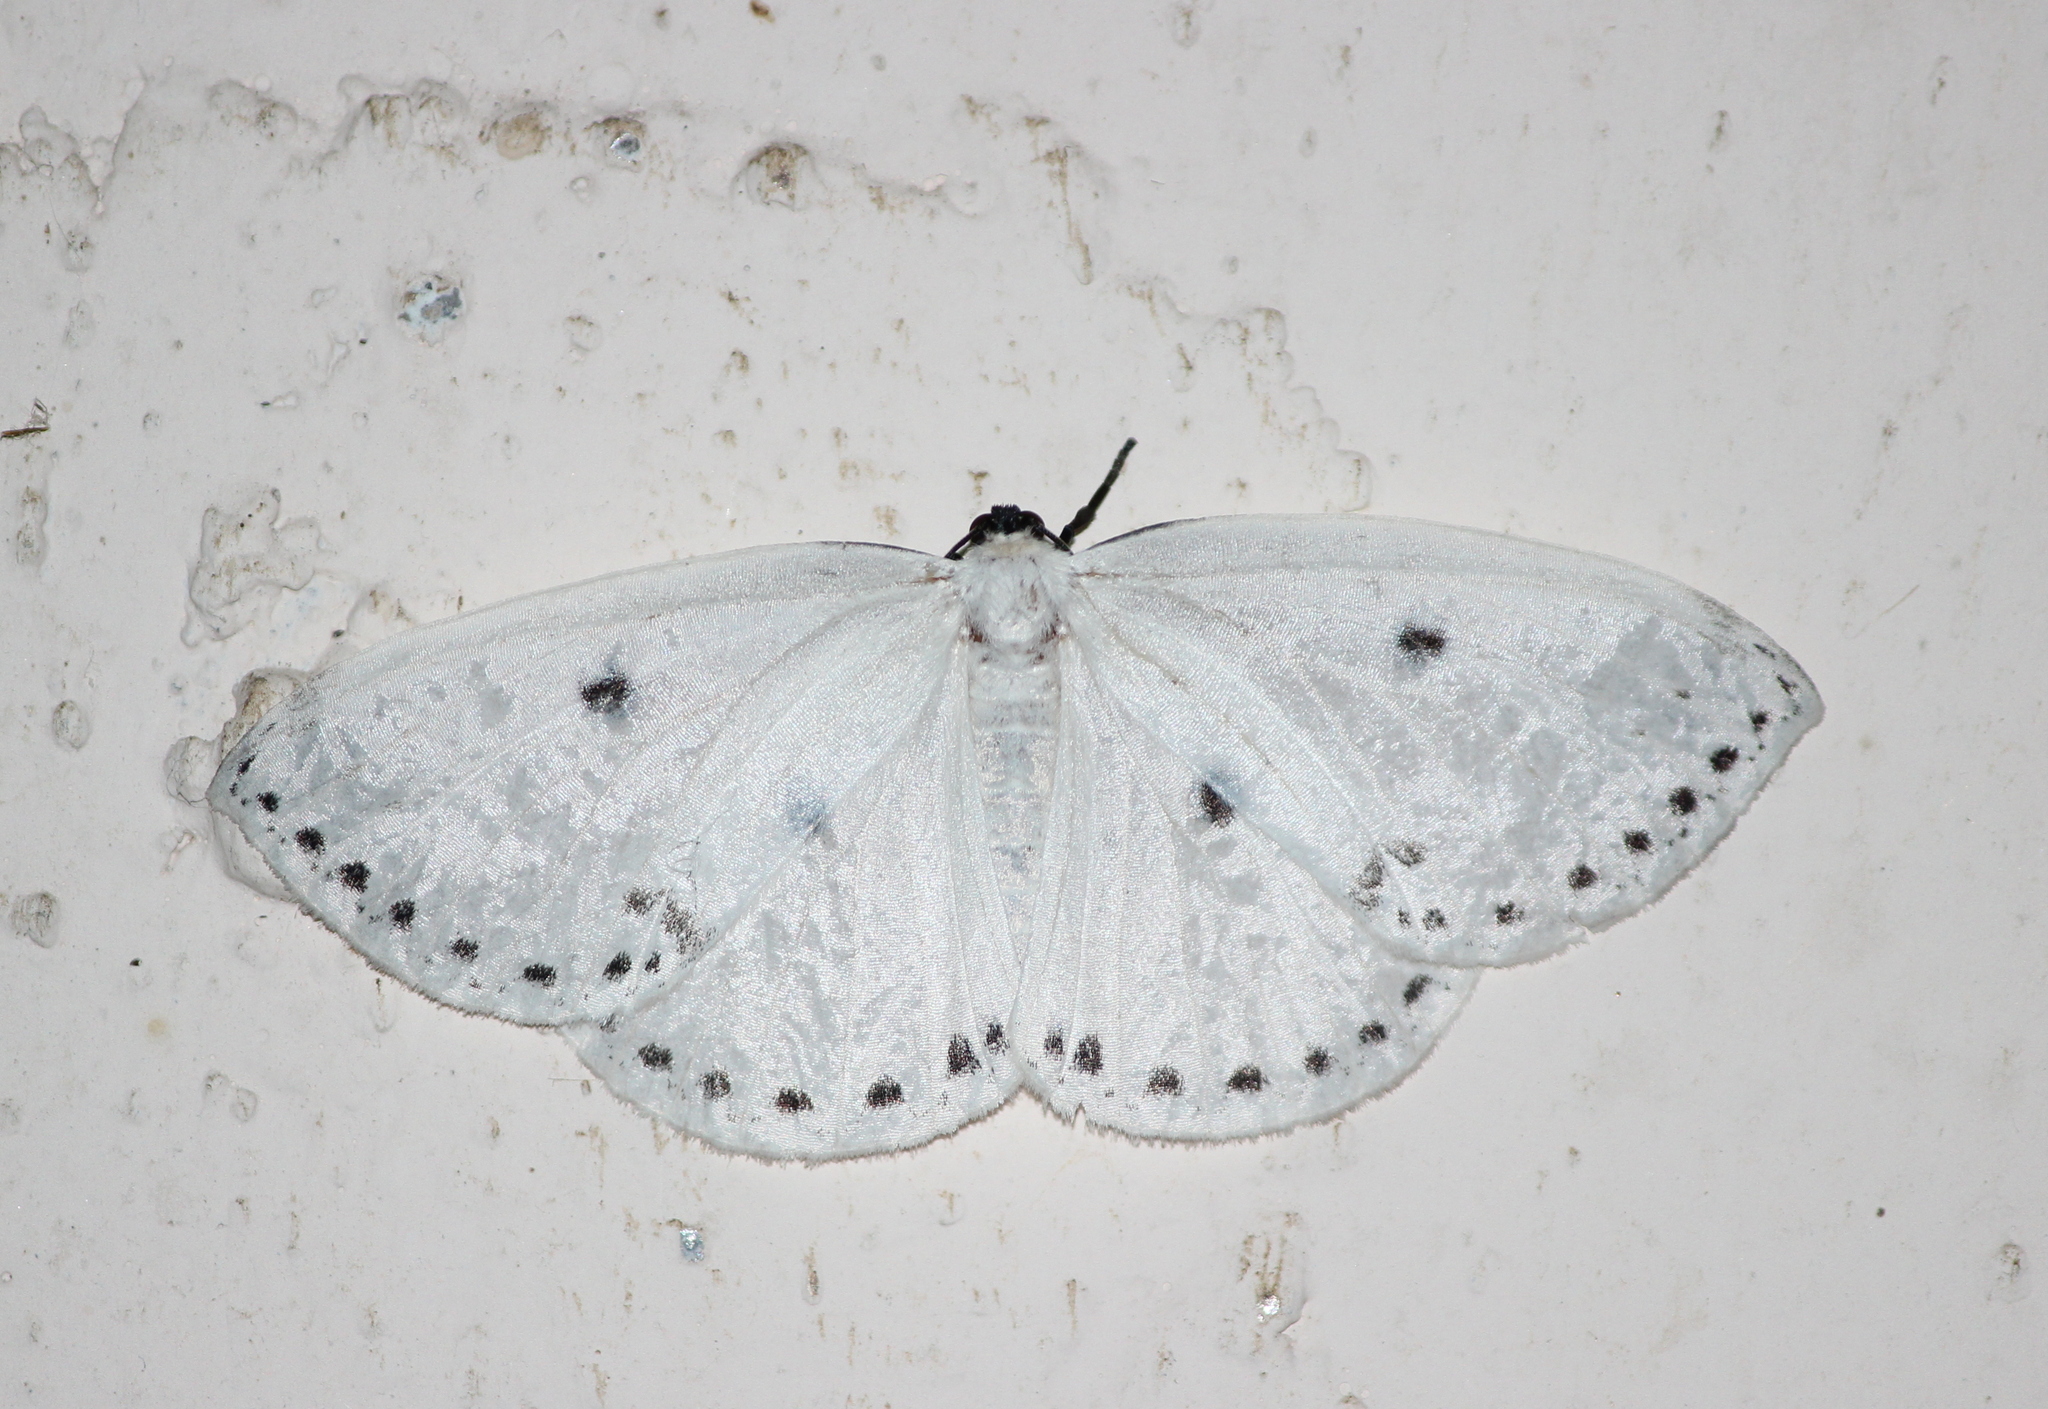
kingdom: Animalia
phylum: Arthropoda
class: Insecta
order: Lepidoptera
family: Drepanidae
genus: Cyclidia
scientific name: Cyclidia dictyaria
